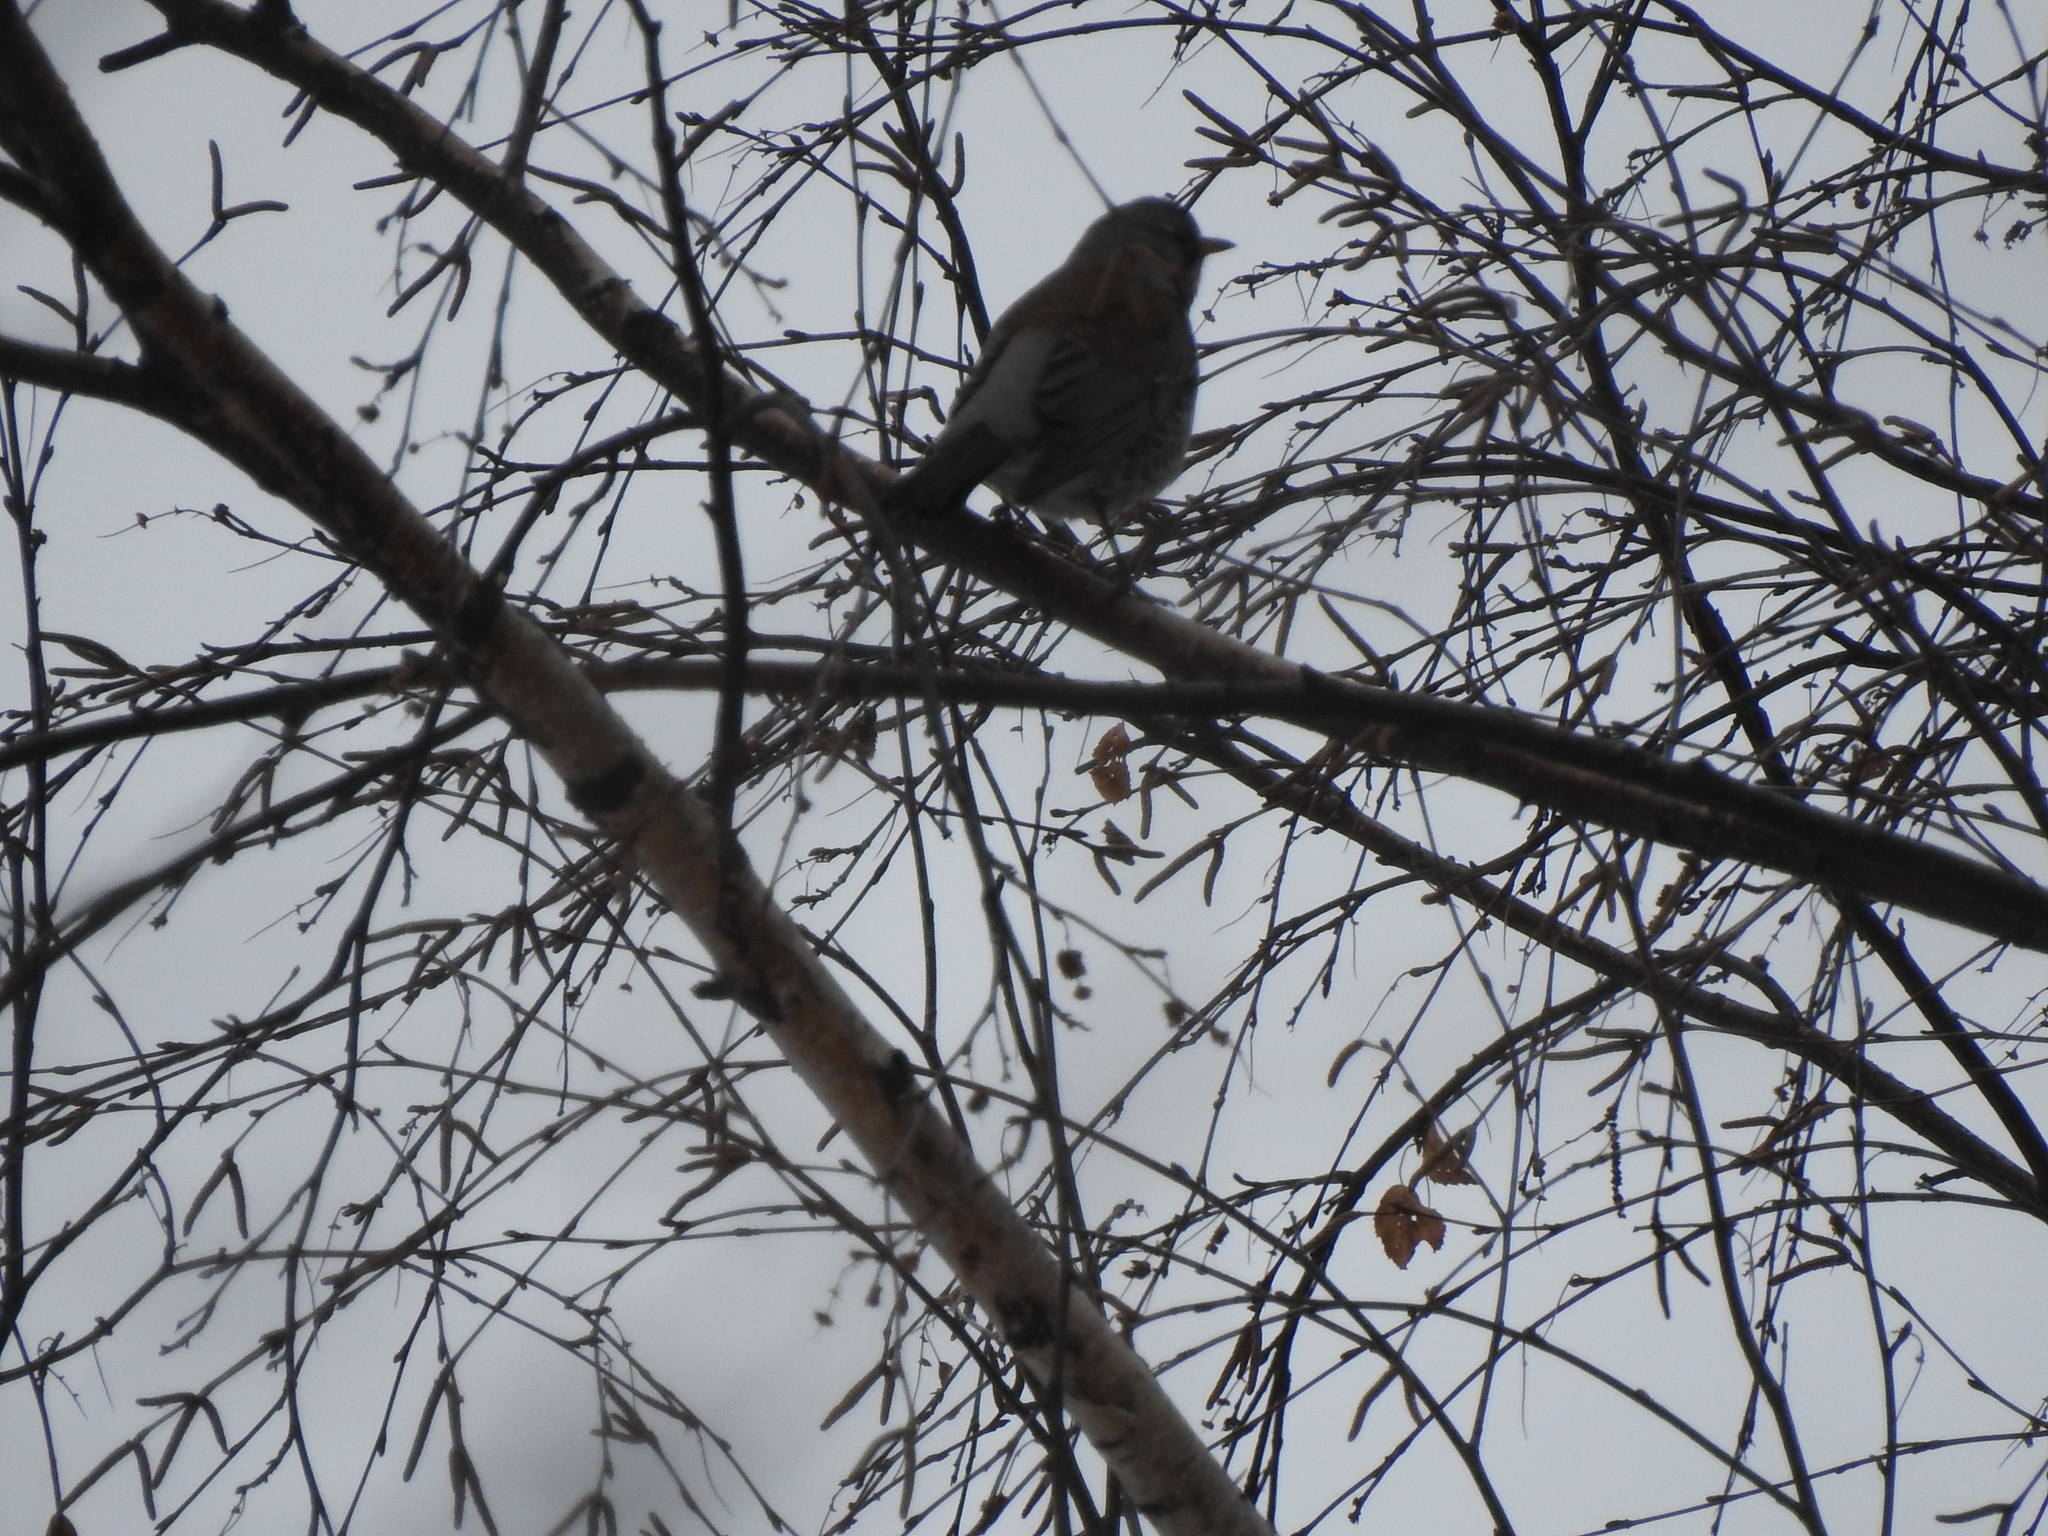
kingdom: Animalia
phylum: Chordata
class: Aves
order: Passeriformes
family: Turdidae
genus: Turdus
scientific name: Turdus pilaris
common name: Fieldfare
